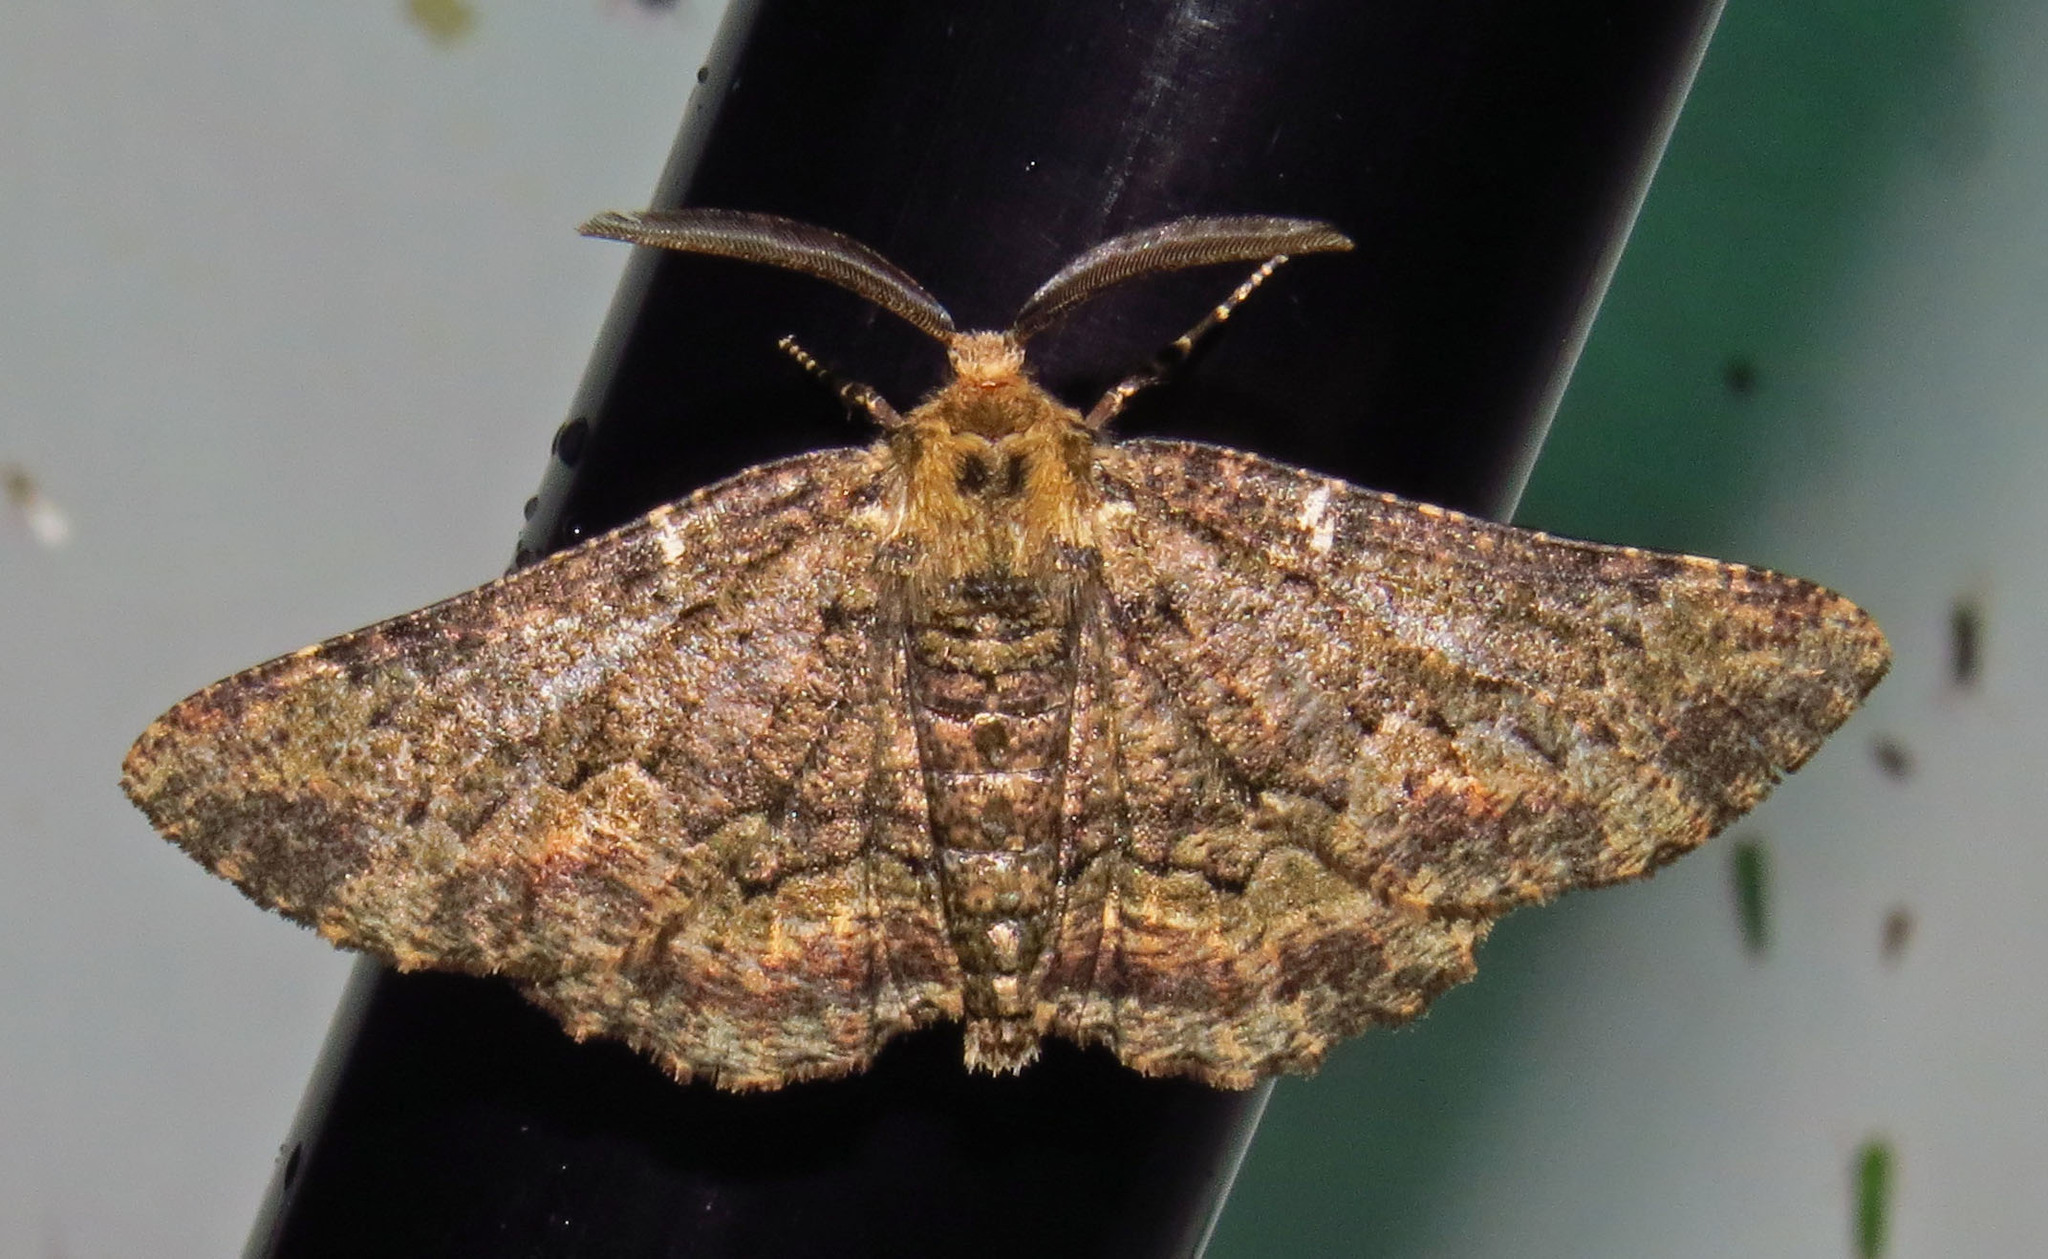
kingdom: Animalia
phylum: Arthropoda
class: Insecta
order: Lepidoptera
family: Geometridae
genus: Phaeoura
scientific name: Phaeoura quernaria
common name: Oak beauty
